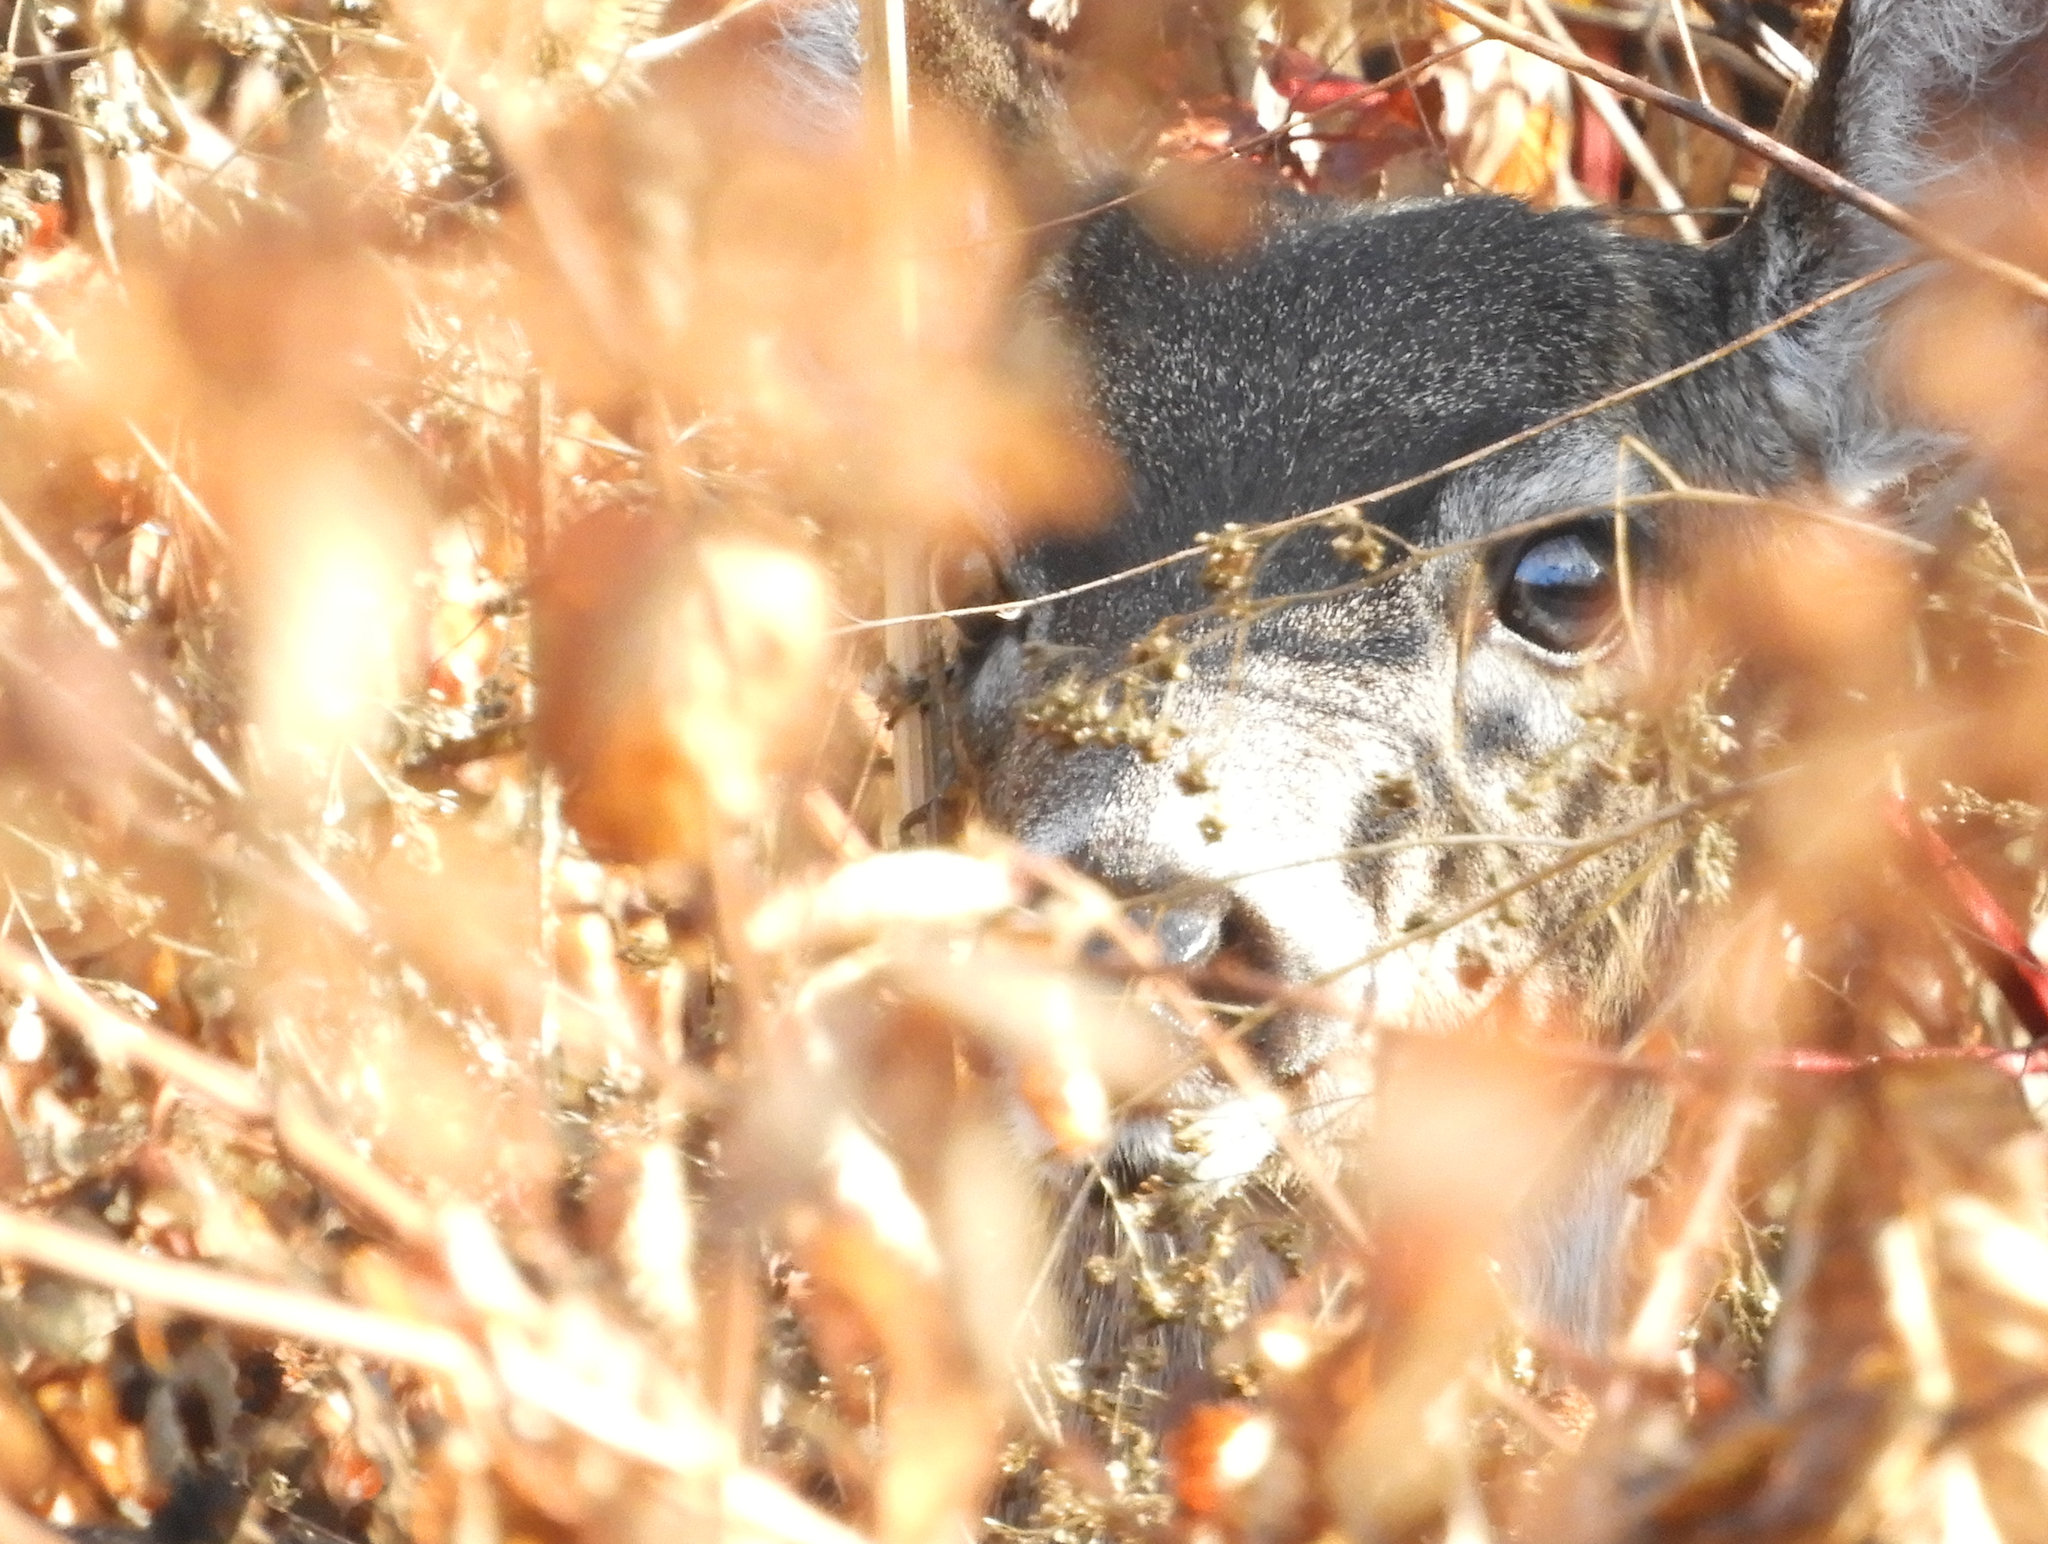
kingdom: Animalia
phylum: Chordata
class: Mammalia
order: Artiodactyla
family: Cervidae
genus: Odocoileus
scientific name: Odocoileus hemionus
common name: Mule deer
